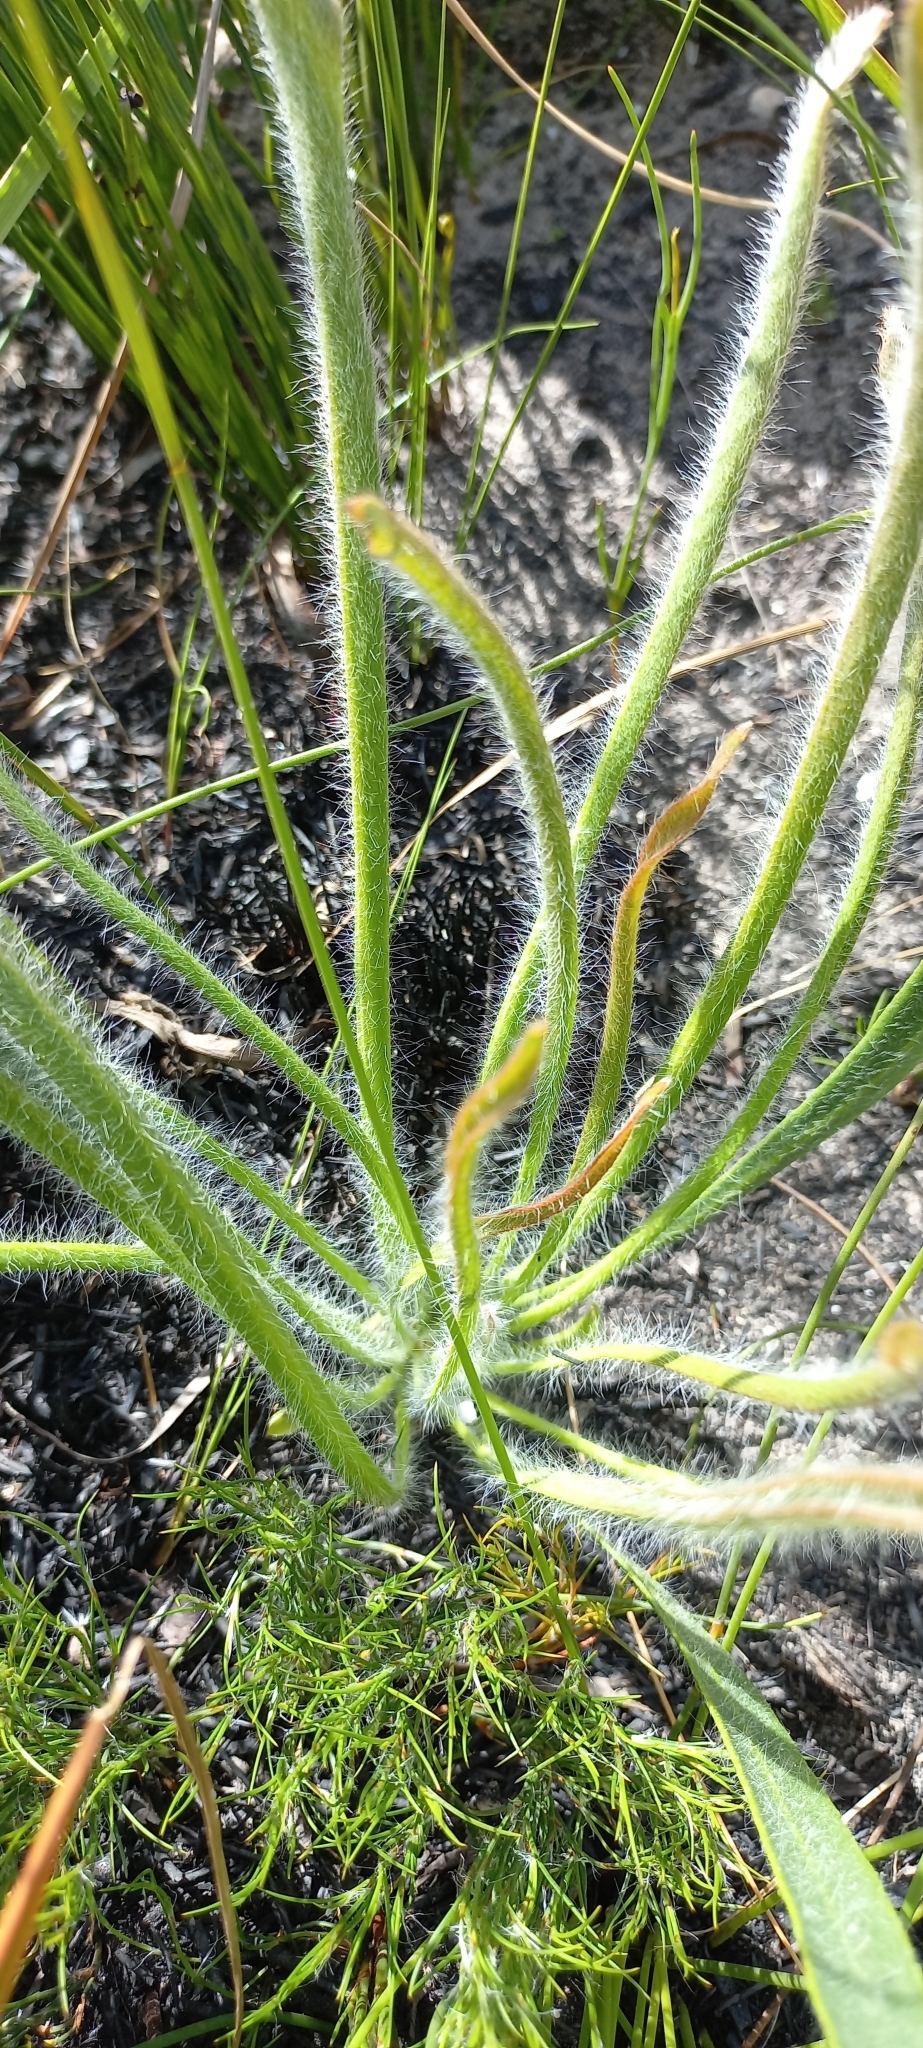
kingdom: Plantae
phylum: Tracheophyta
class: Magnoliopsida
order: Proteales
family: Proteaceae
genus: Protea
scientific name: Protea scabra
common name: Sandpaper-leaf sugarbush
